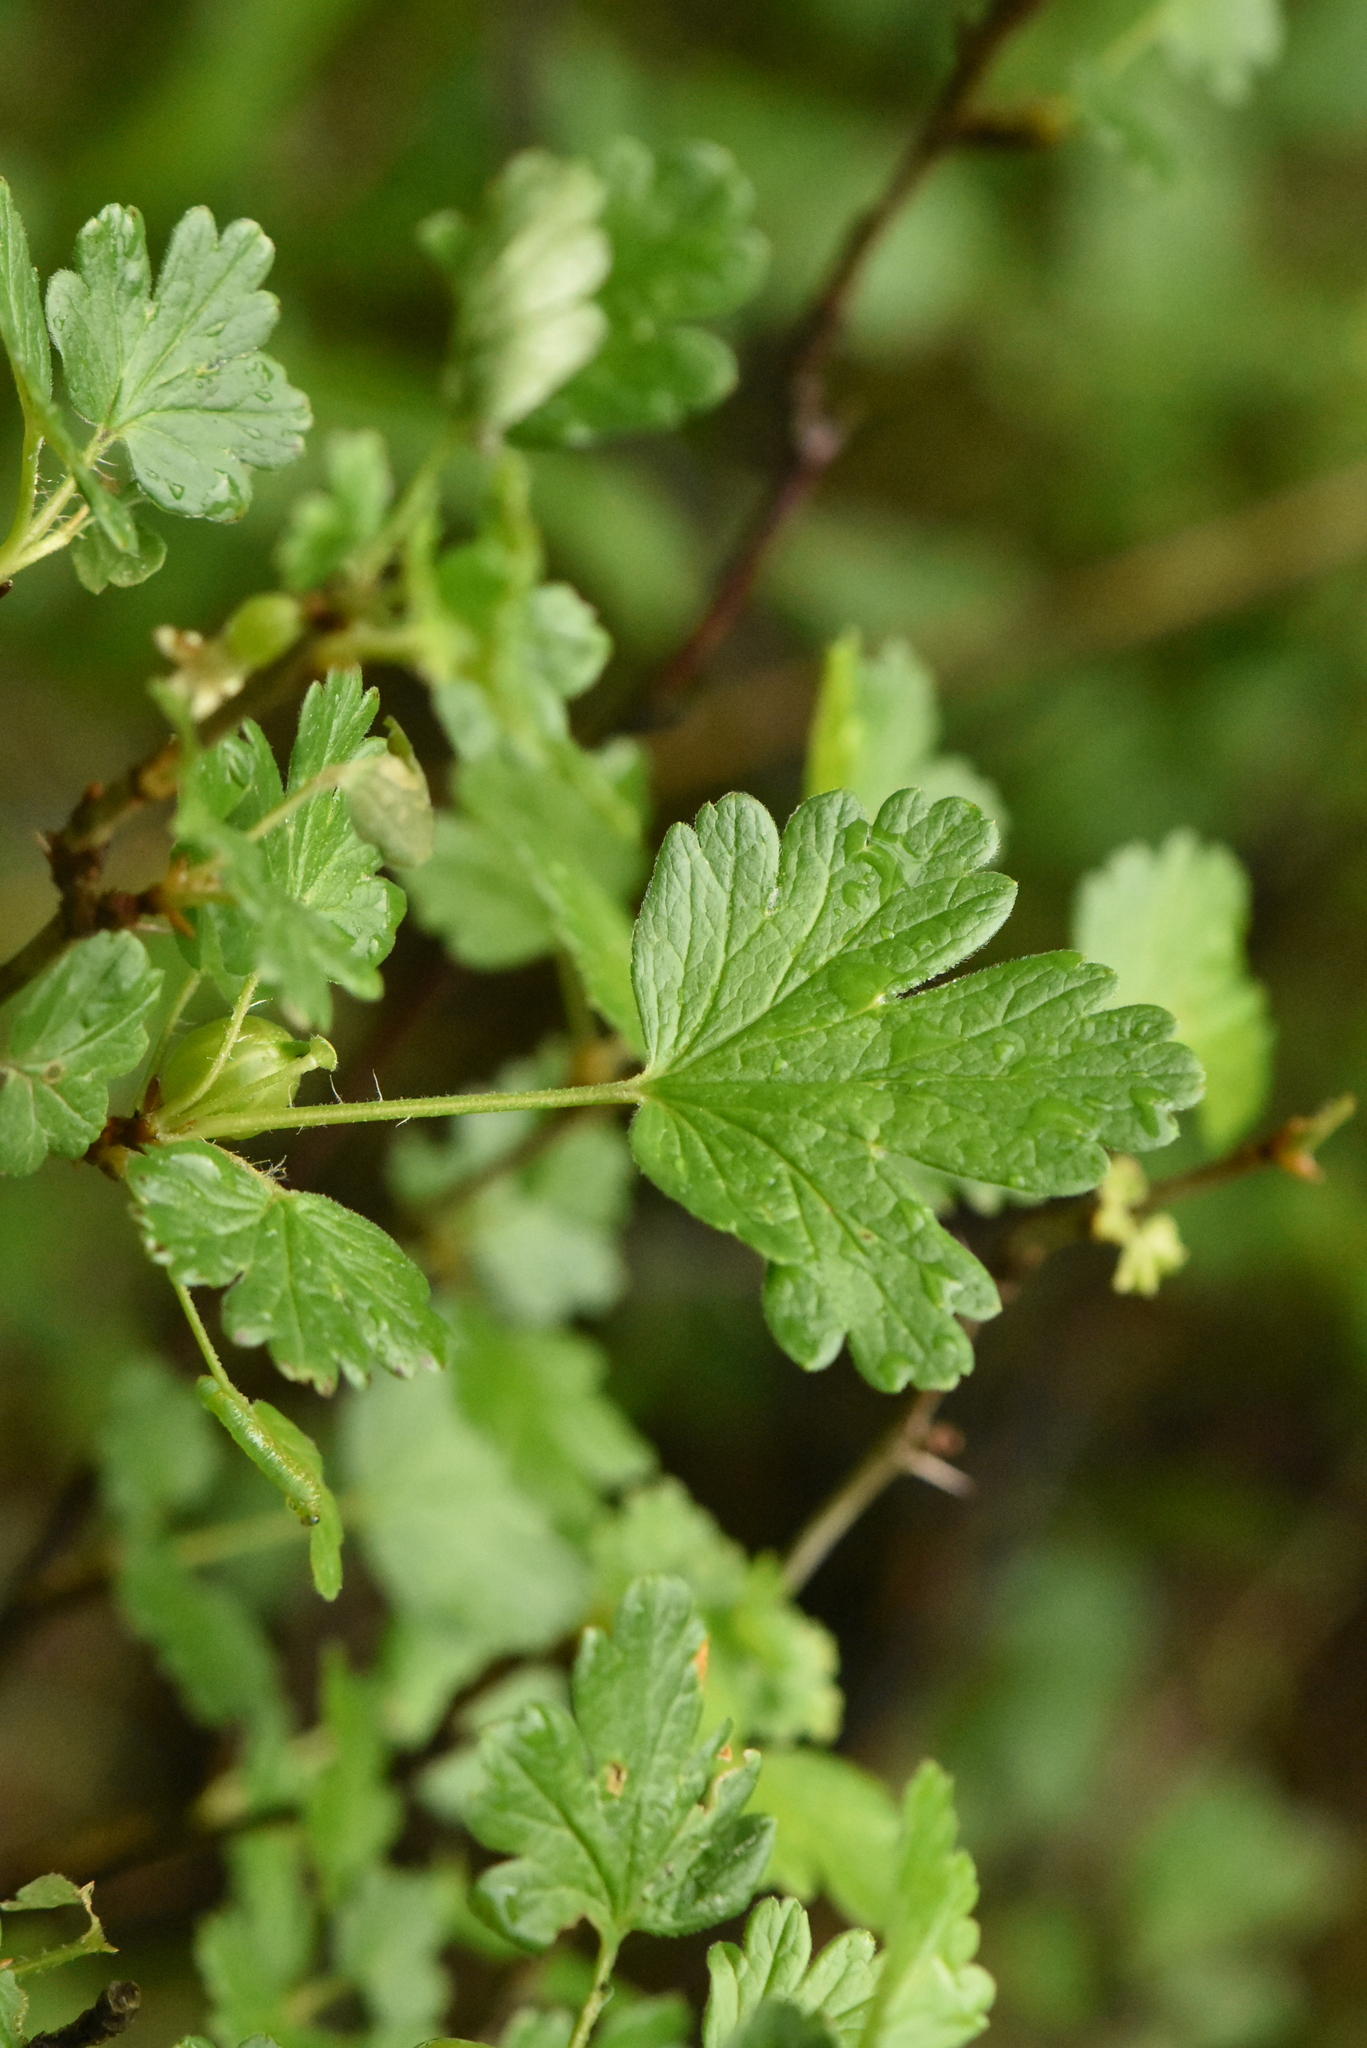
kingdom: Plantae
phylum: Tracheophyta
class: Magnoliopsida
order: Saxifragales
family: Grossulariaceae
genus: Ribes
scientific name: Ribes uva-crispa
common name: Gooseberry
